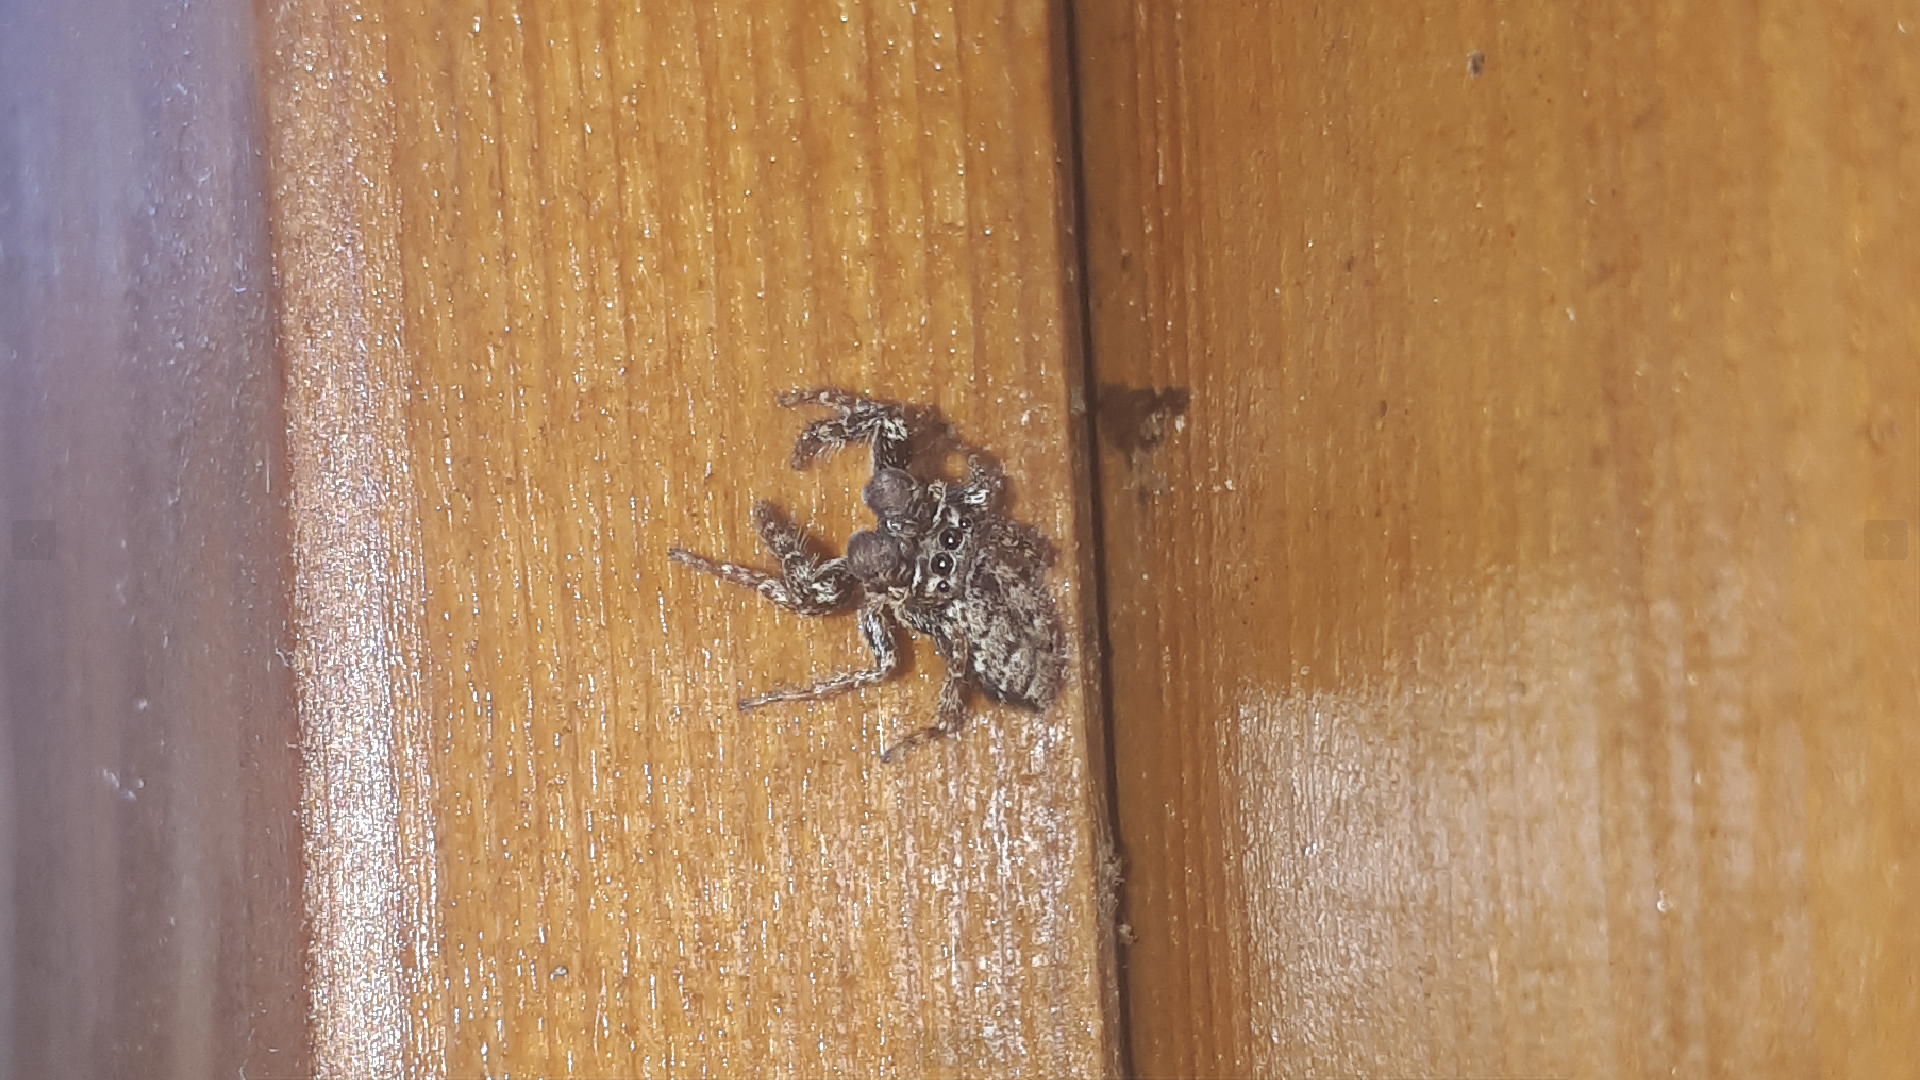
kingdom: Animalia
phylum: Arthropoda
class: Arachnida
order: Araneae
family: Salticidae
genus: Marpissa
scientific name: Marpissa muscosa
